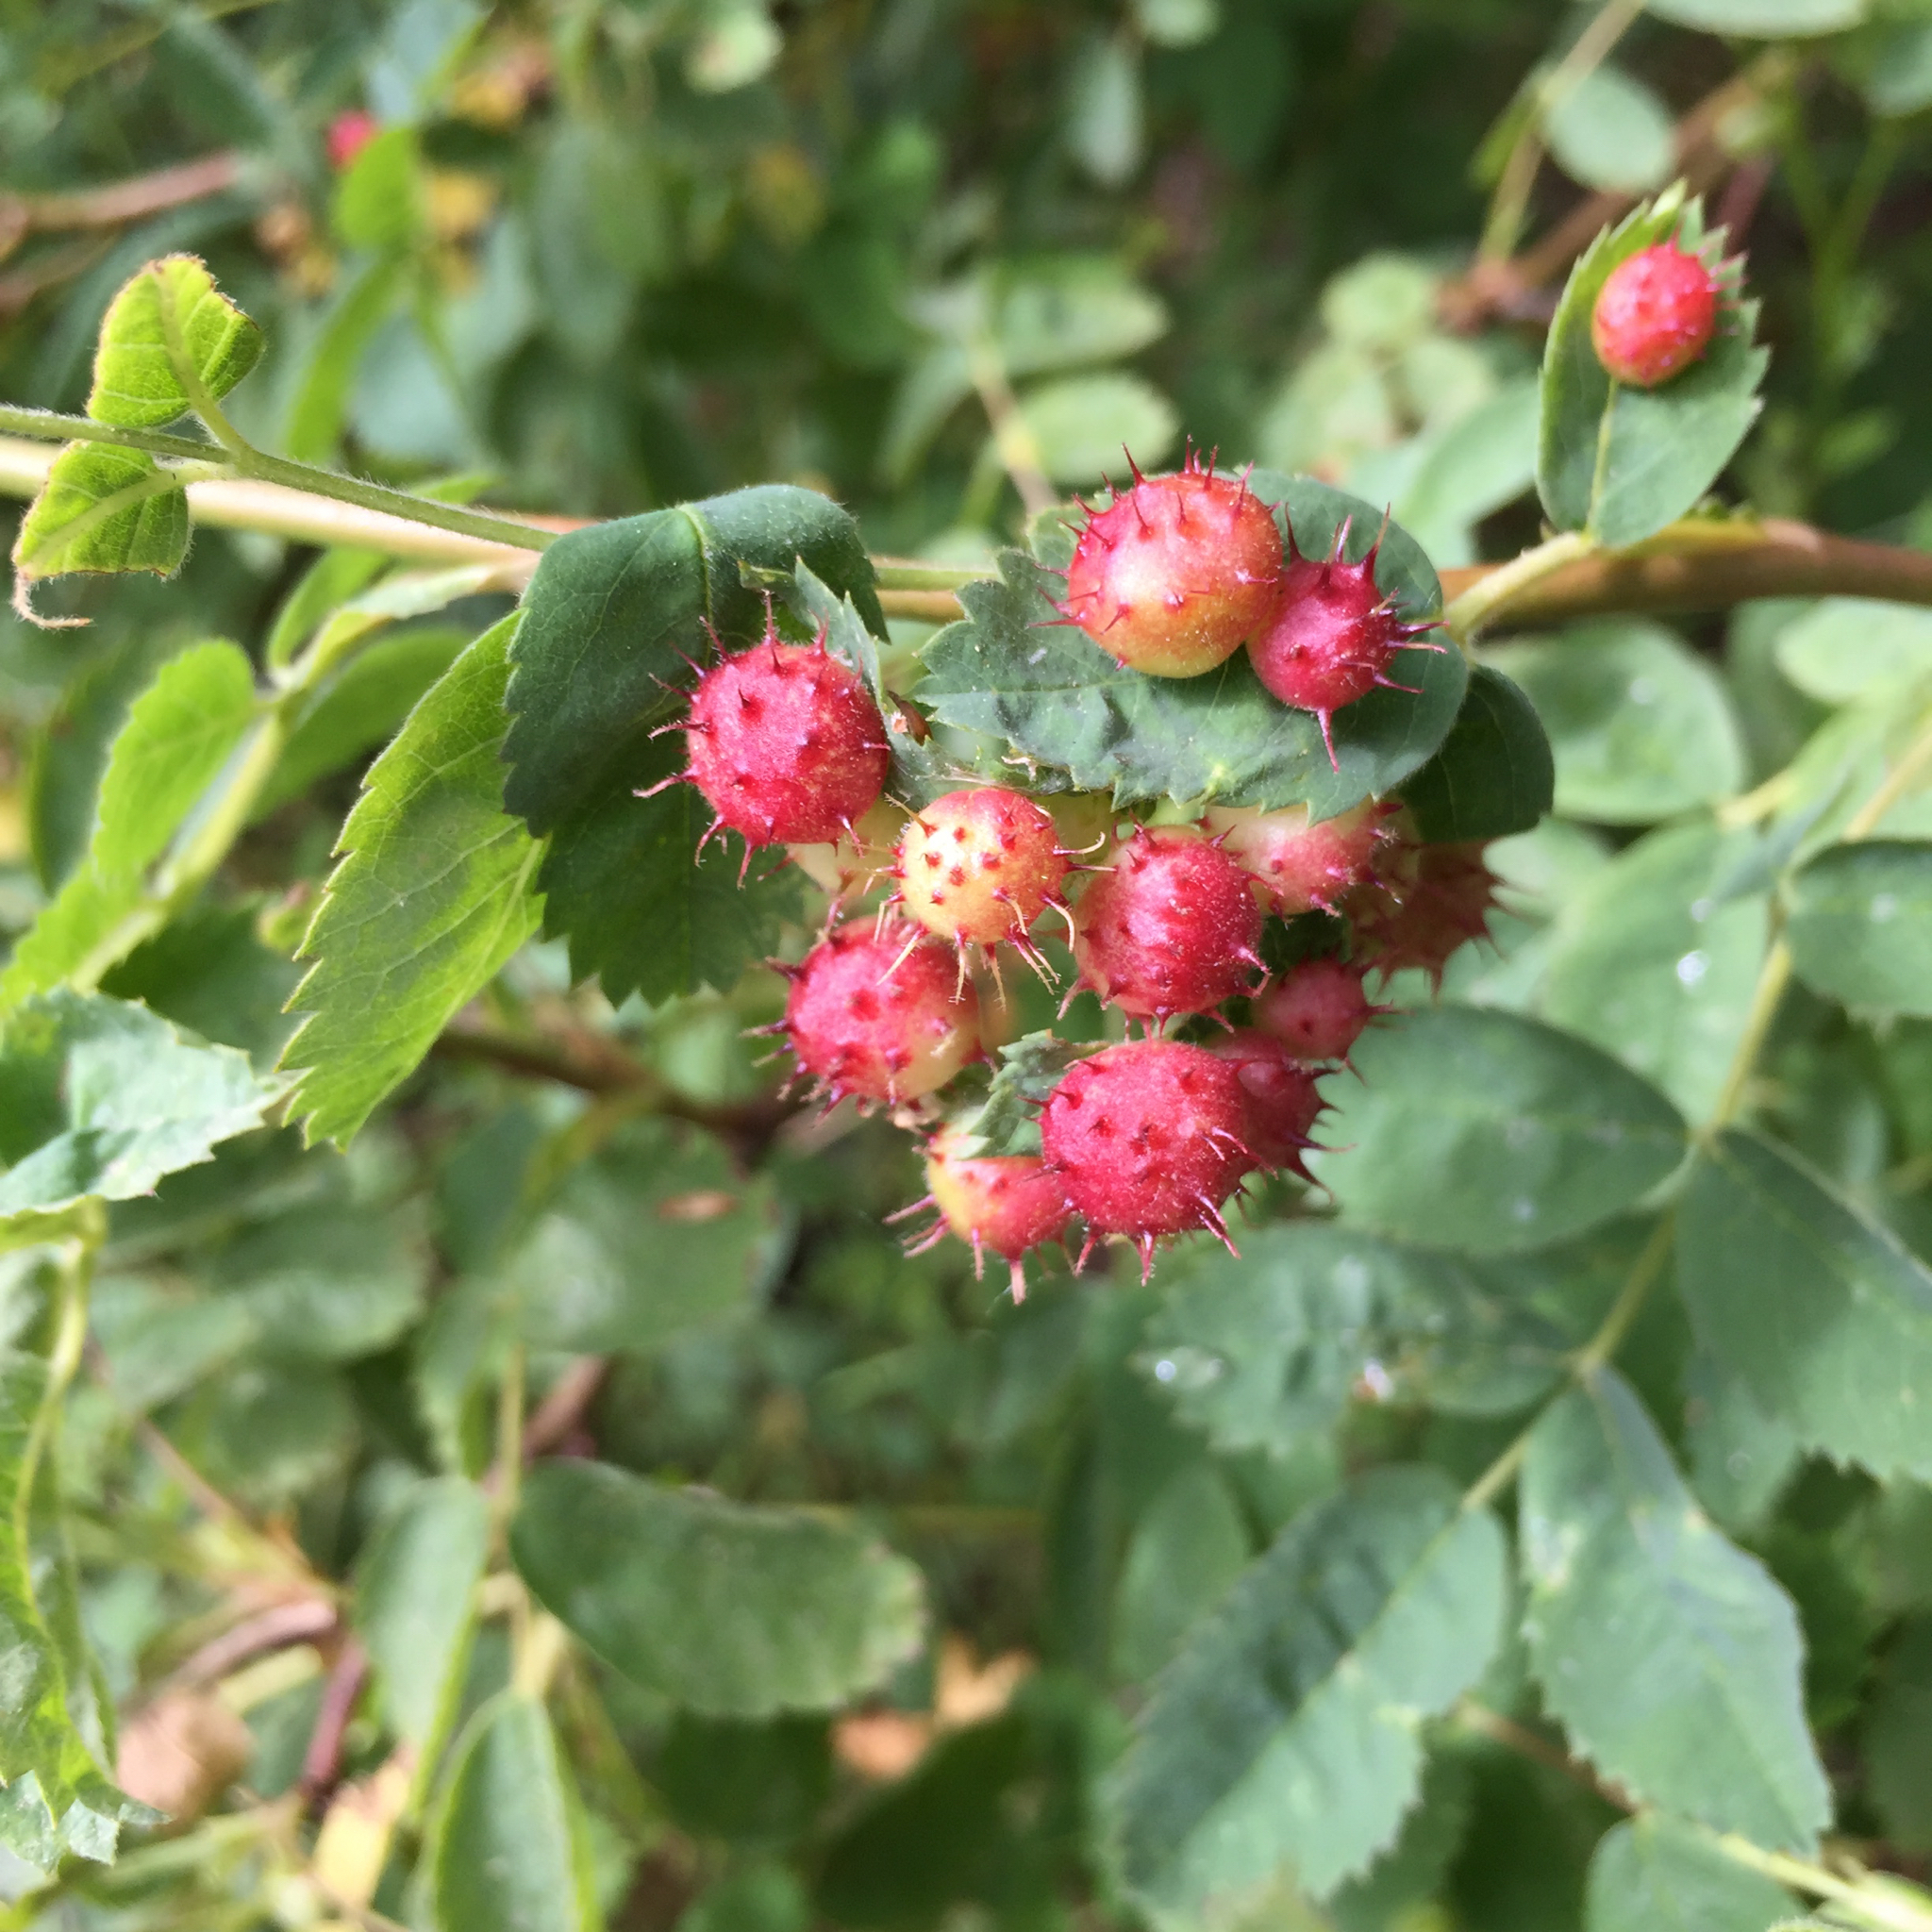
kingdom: Animalia
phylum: Arthropoda
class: Insecta
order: Hymenoptera
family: Cynipidae
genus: Diplolepis
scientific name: Diplolepis polita
